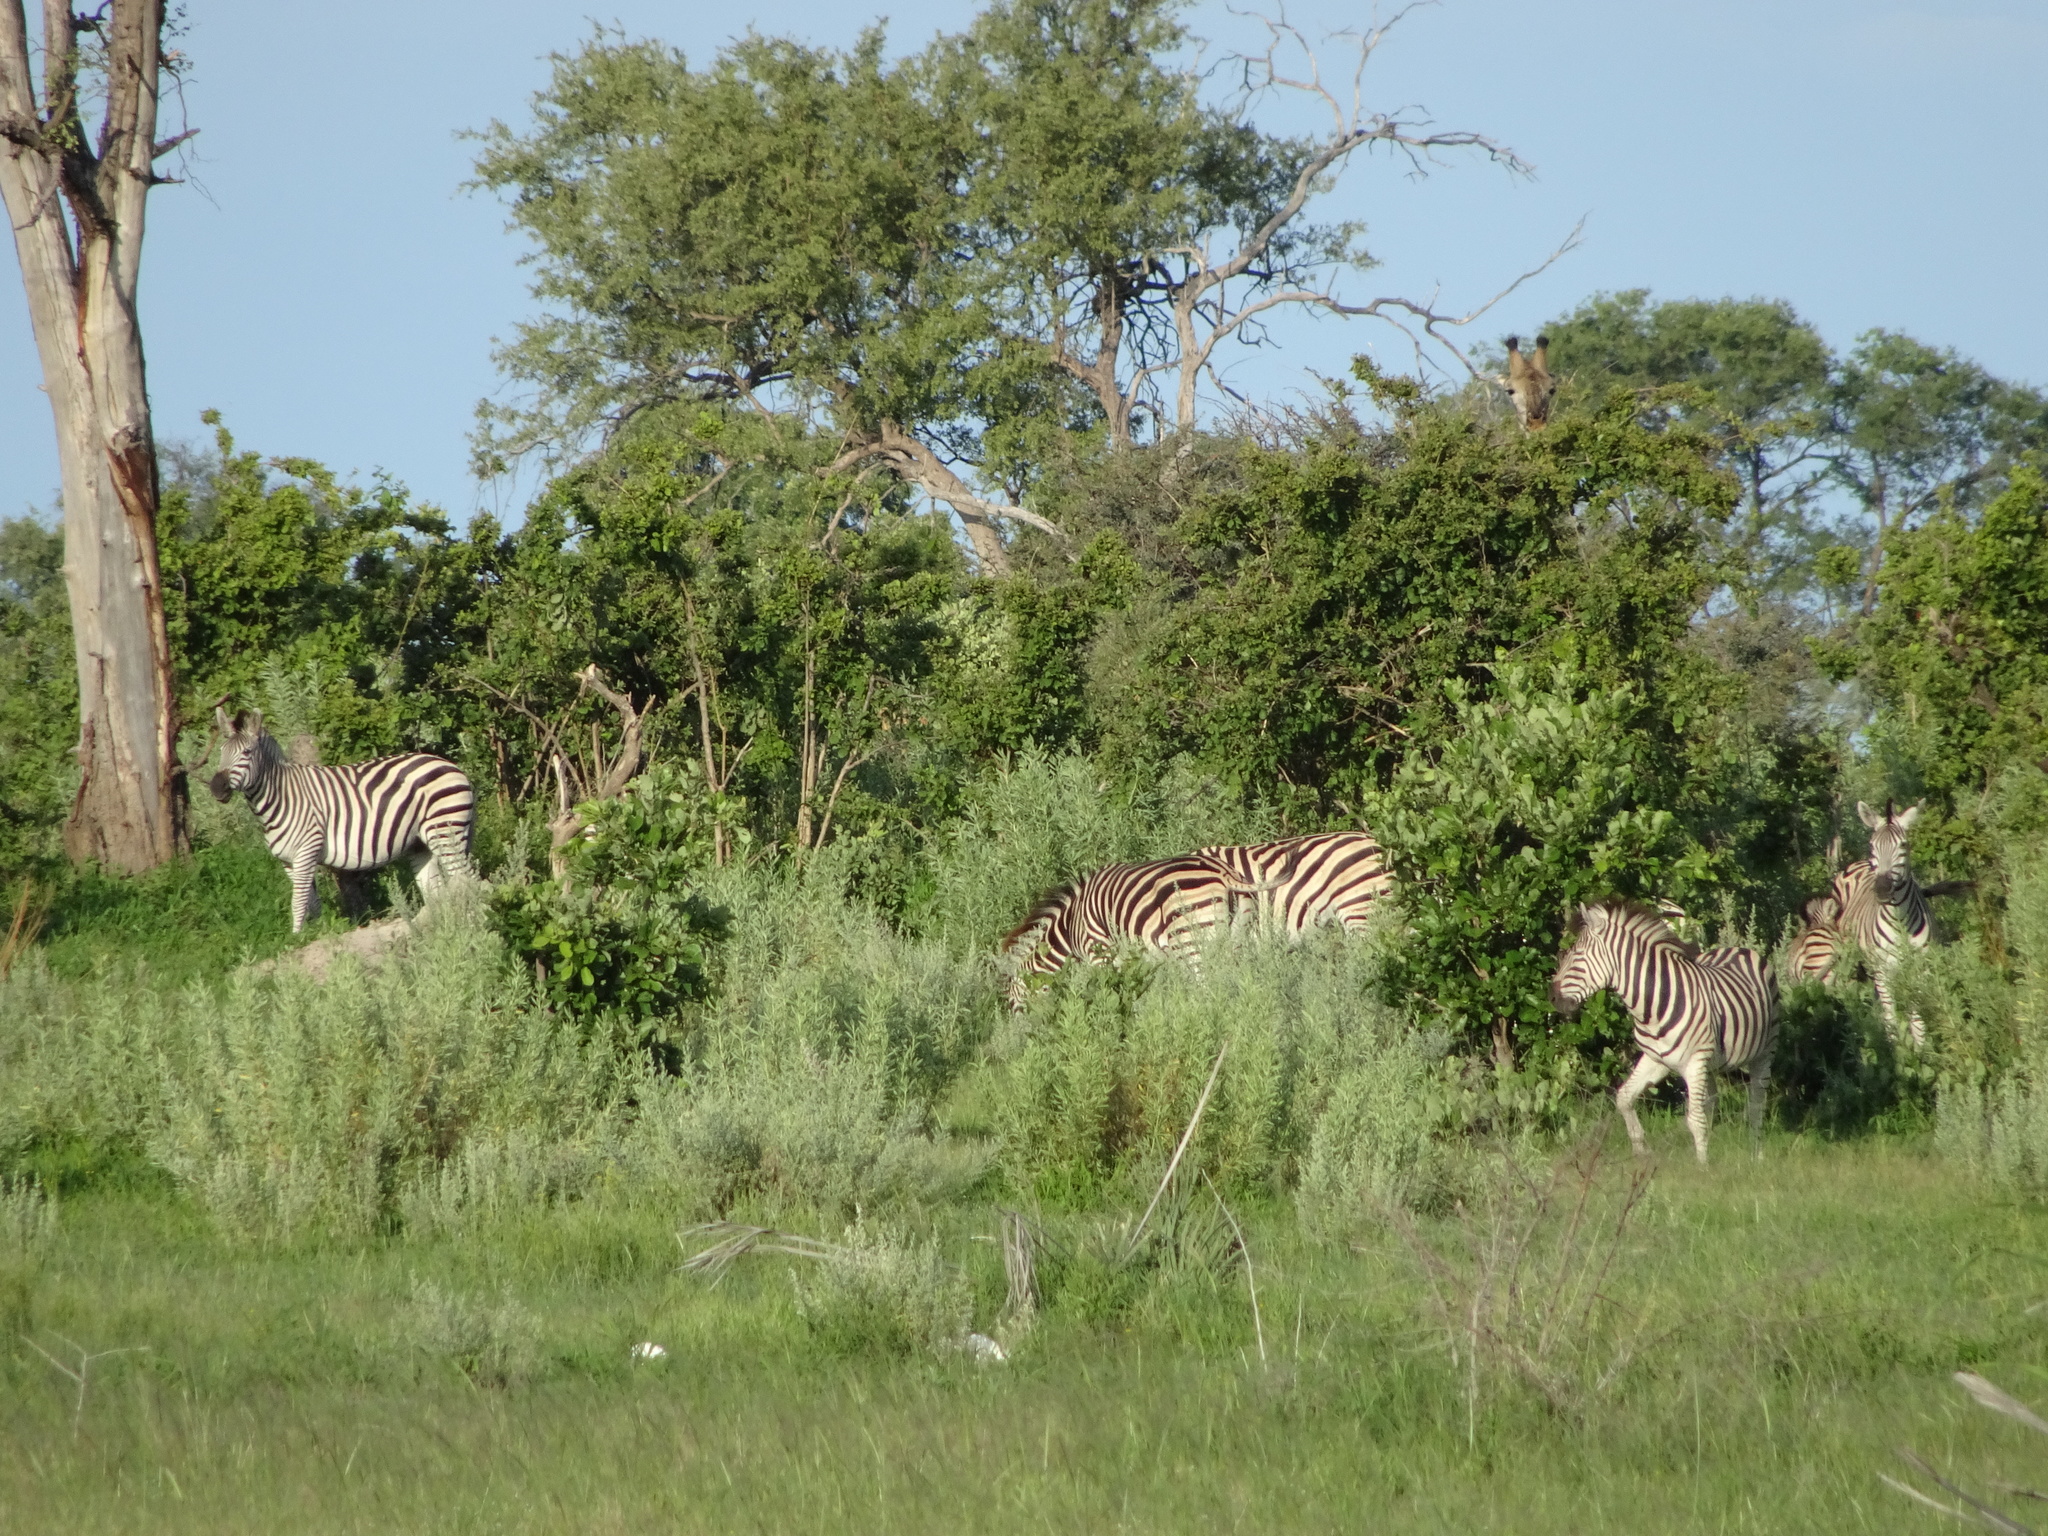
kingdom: Animalia
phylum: Chordata
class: Mammalia
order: Perissodactyla
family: Equidae
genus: Equus
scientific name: Equus quagga
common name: Plains zebra
